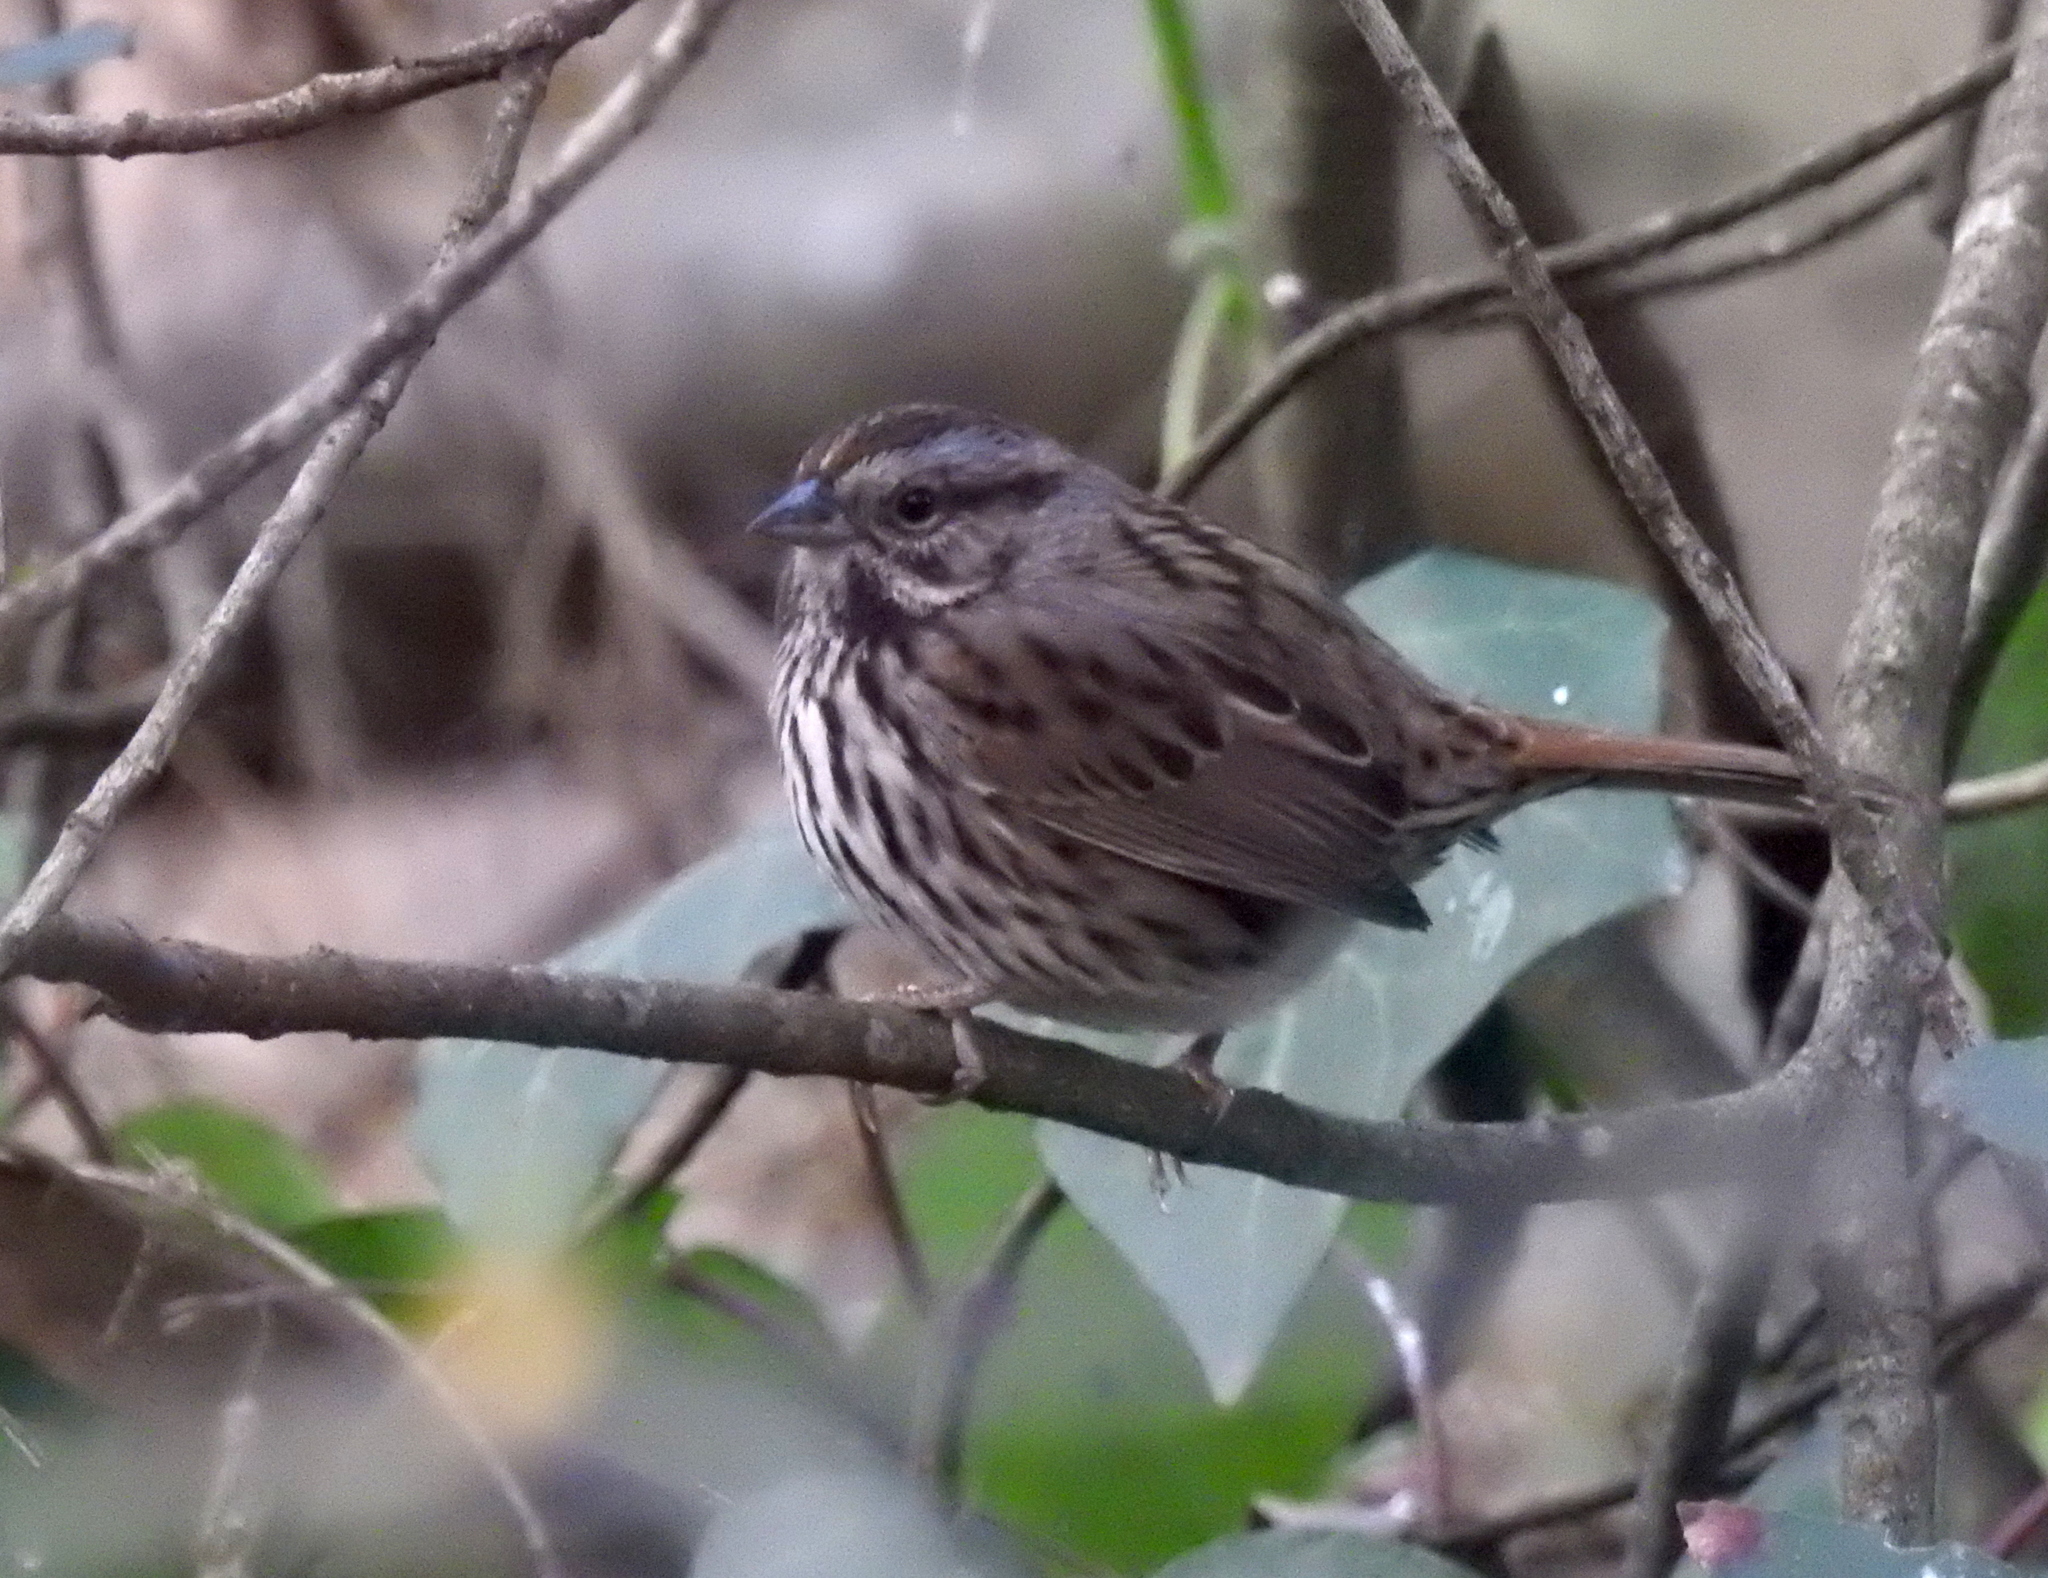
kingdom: Animalia
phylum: Chordata
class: Aves
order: Passeriformes
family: Passerellidae
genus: Melospiza
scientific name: Melospiza melodia
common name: Song sparrow
